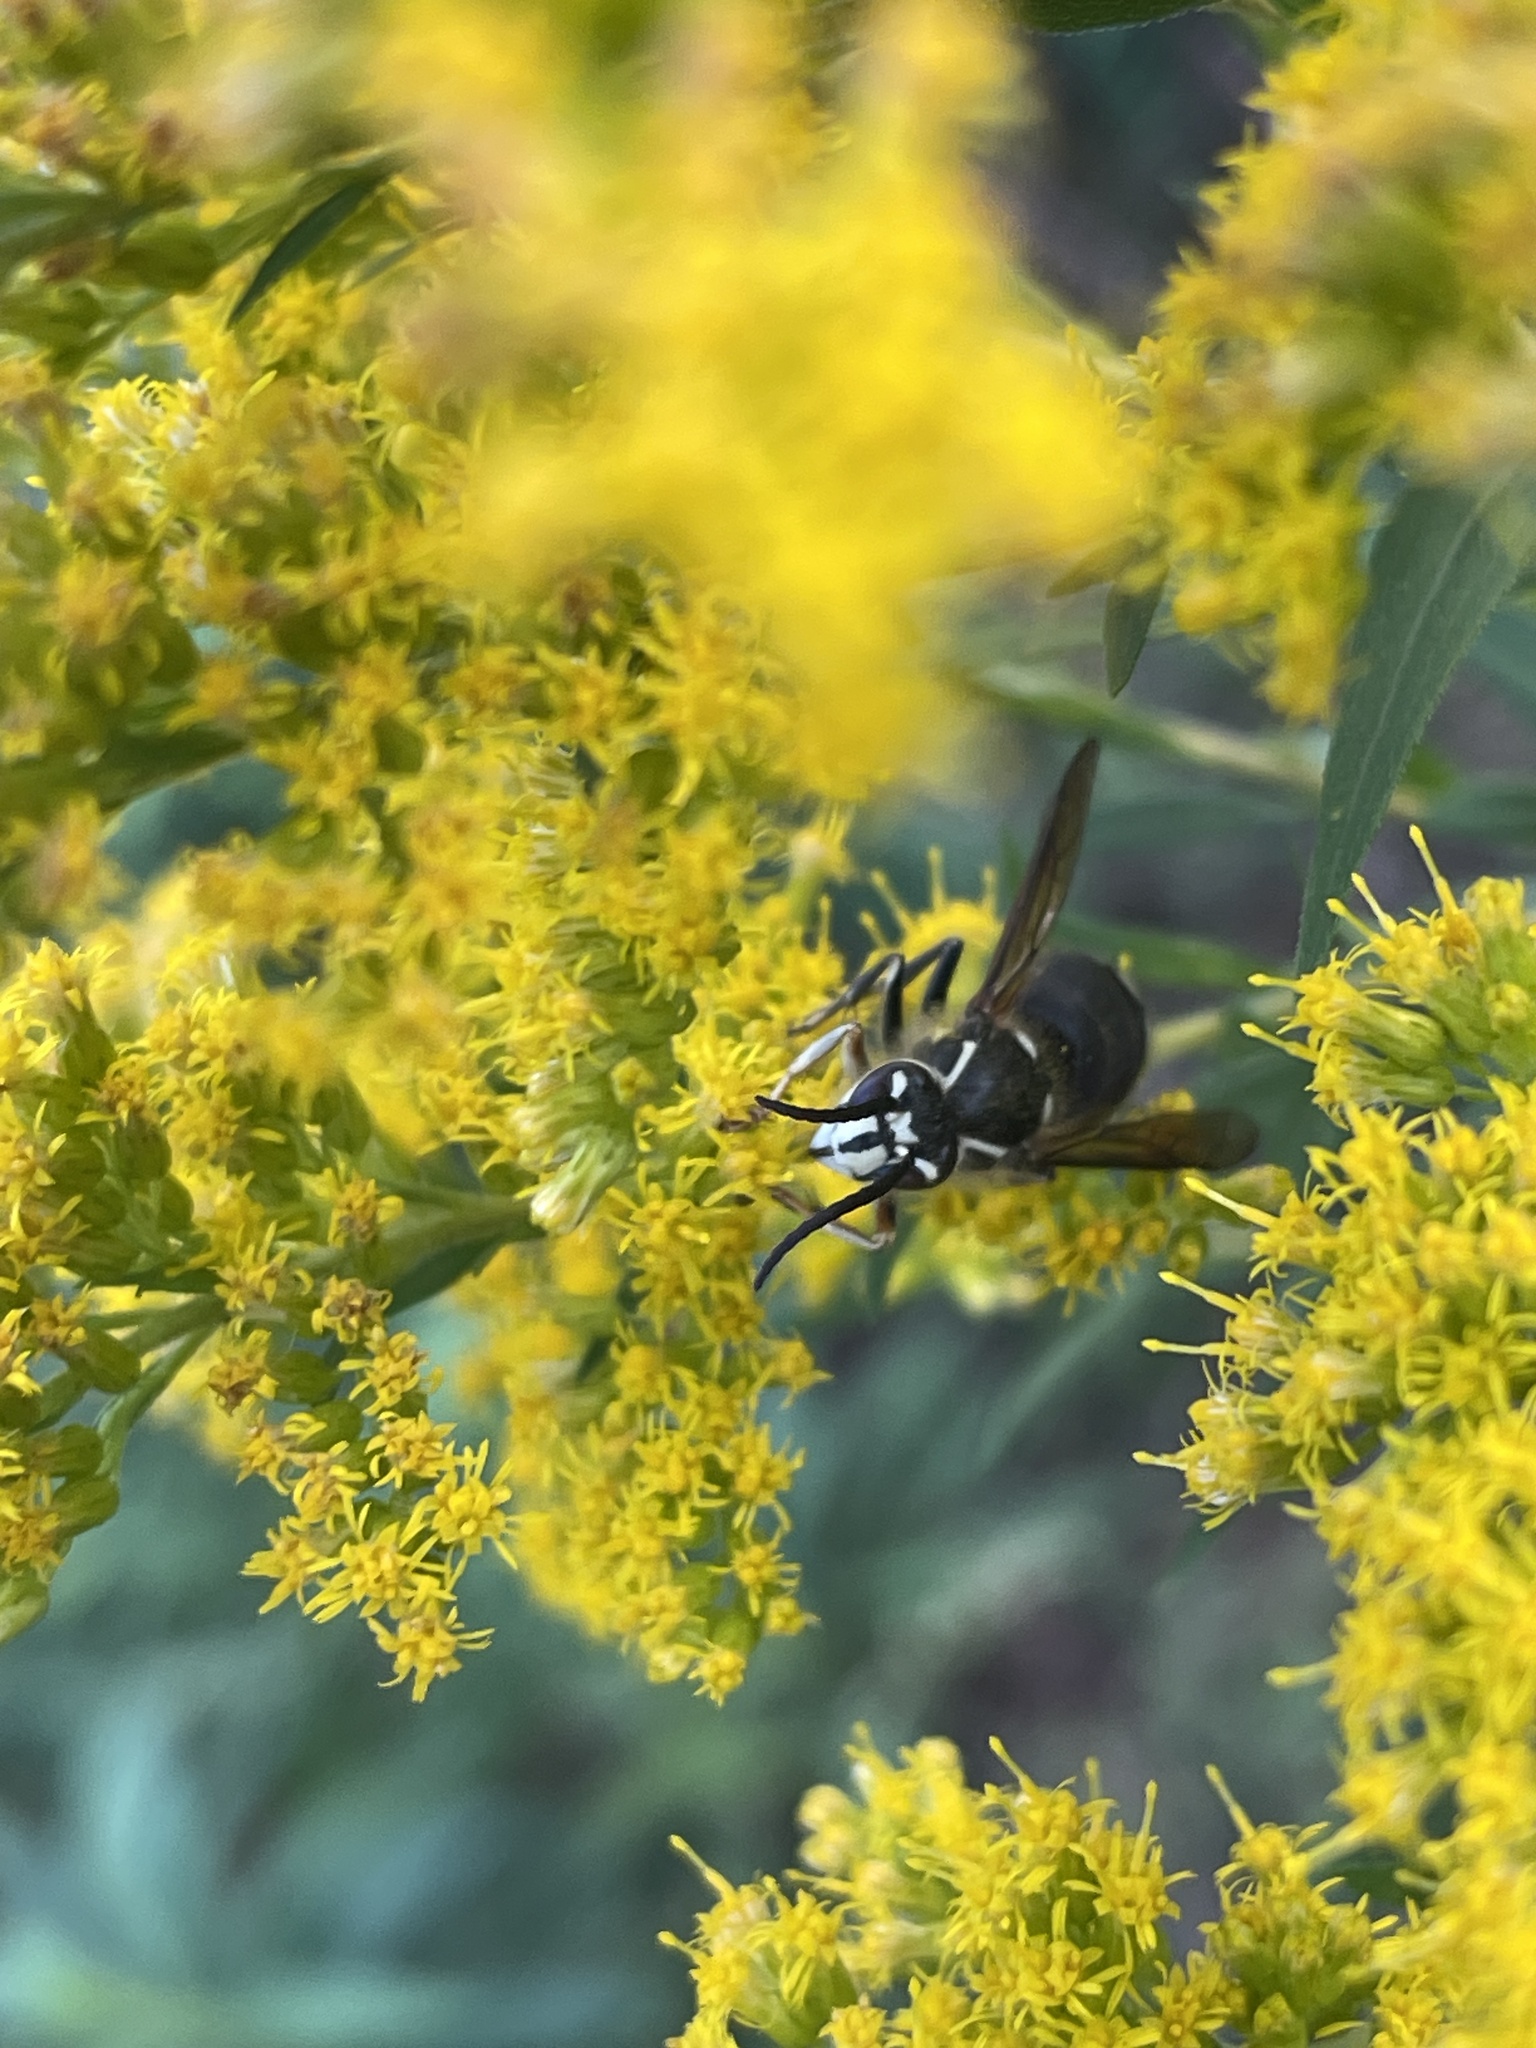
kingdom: Animalia
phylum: Arthropoda
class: Insecta
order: Hymenoptera
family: Vespidae
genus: Dolichovespula
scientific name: Dolichovespula maculata
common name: Bald-faced hornet
